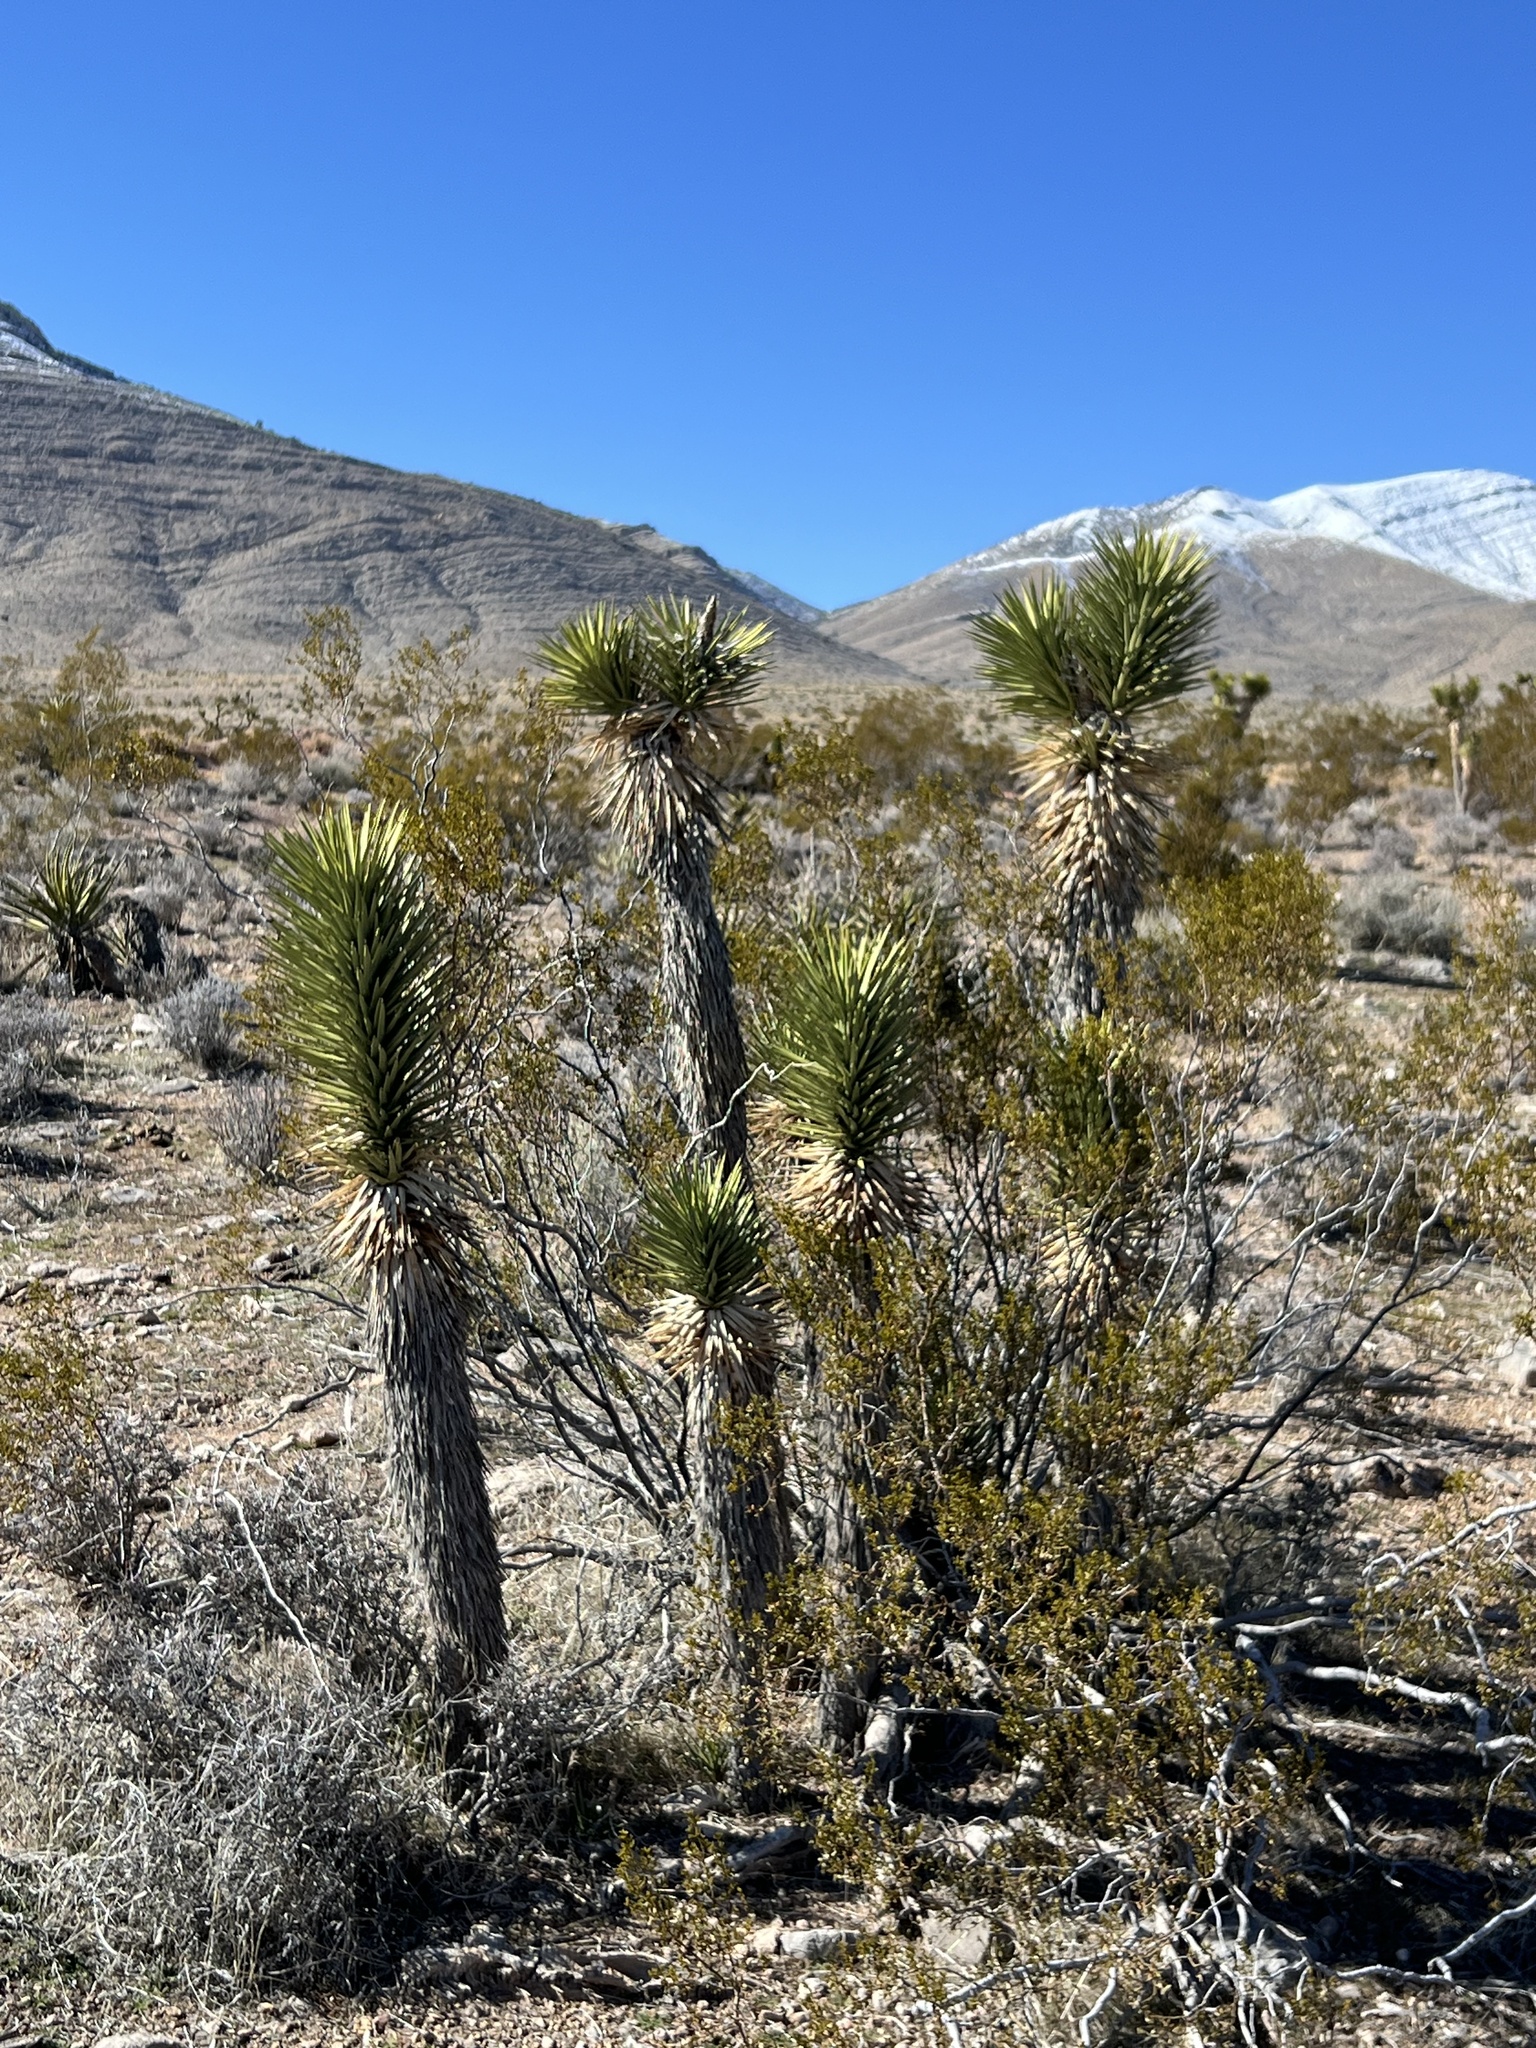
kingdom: Plantae
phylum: Tracheophyta
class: Liliopsida
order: Asparagales
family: Asparagaceae
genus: Yucca
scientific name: Yucca brevifolia
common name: Joshua tree
